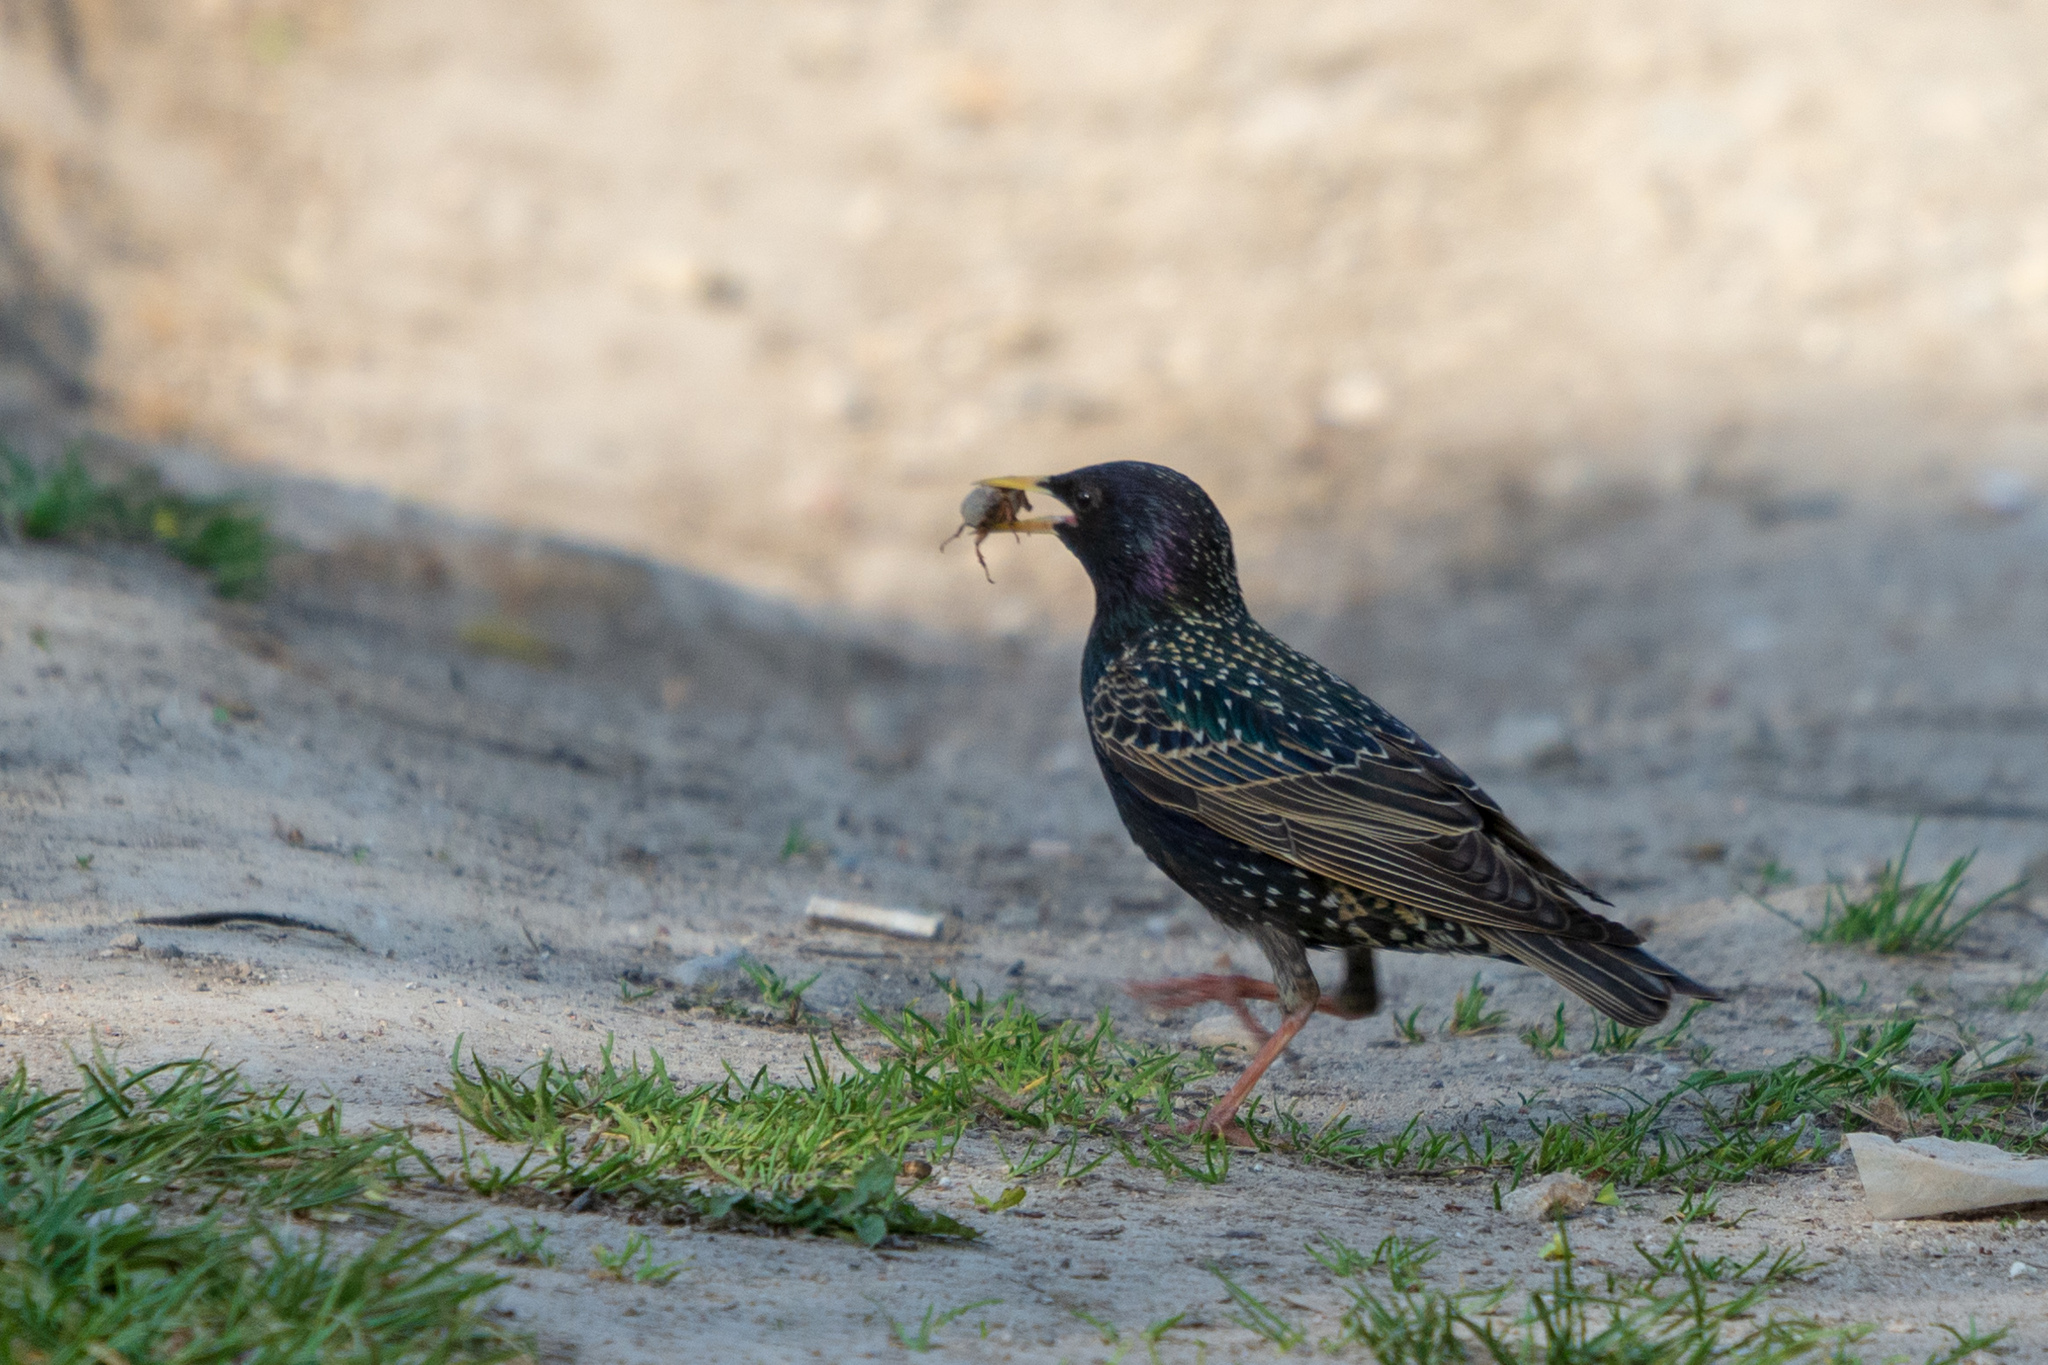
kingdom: Animalia
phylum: Chordata
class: Aves
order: Passeriformes
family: Sturnidae
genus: Sturnus
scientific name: Sturnus vulgaris
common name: Common starling
